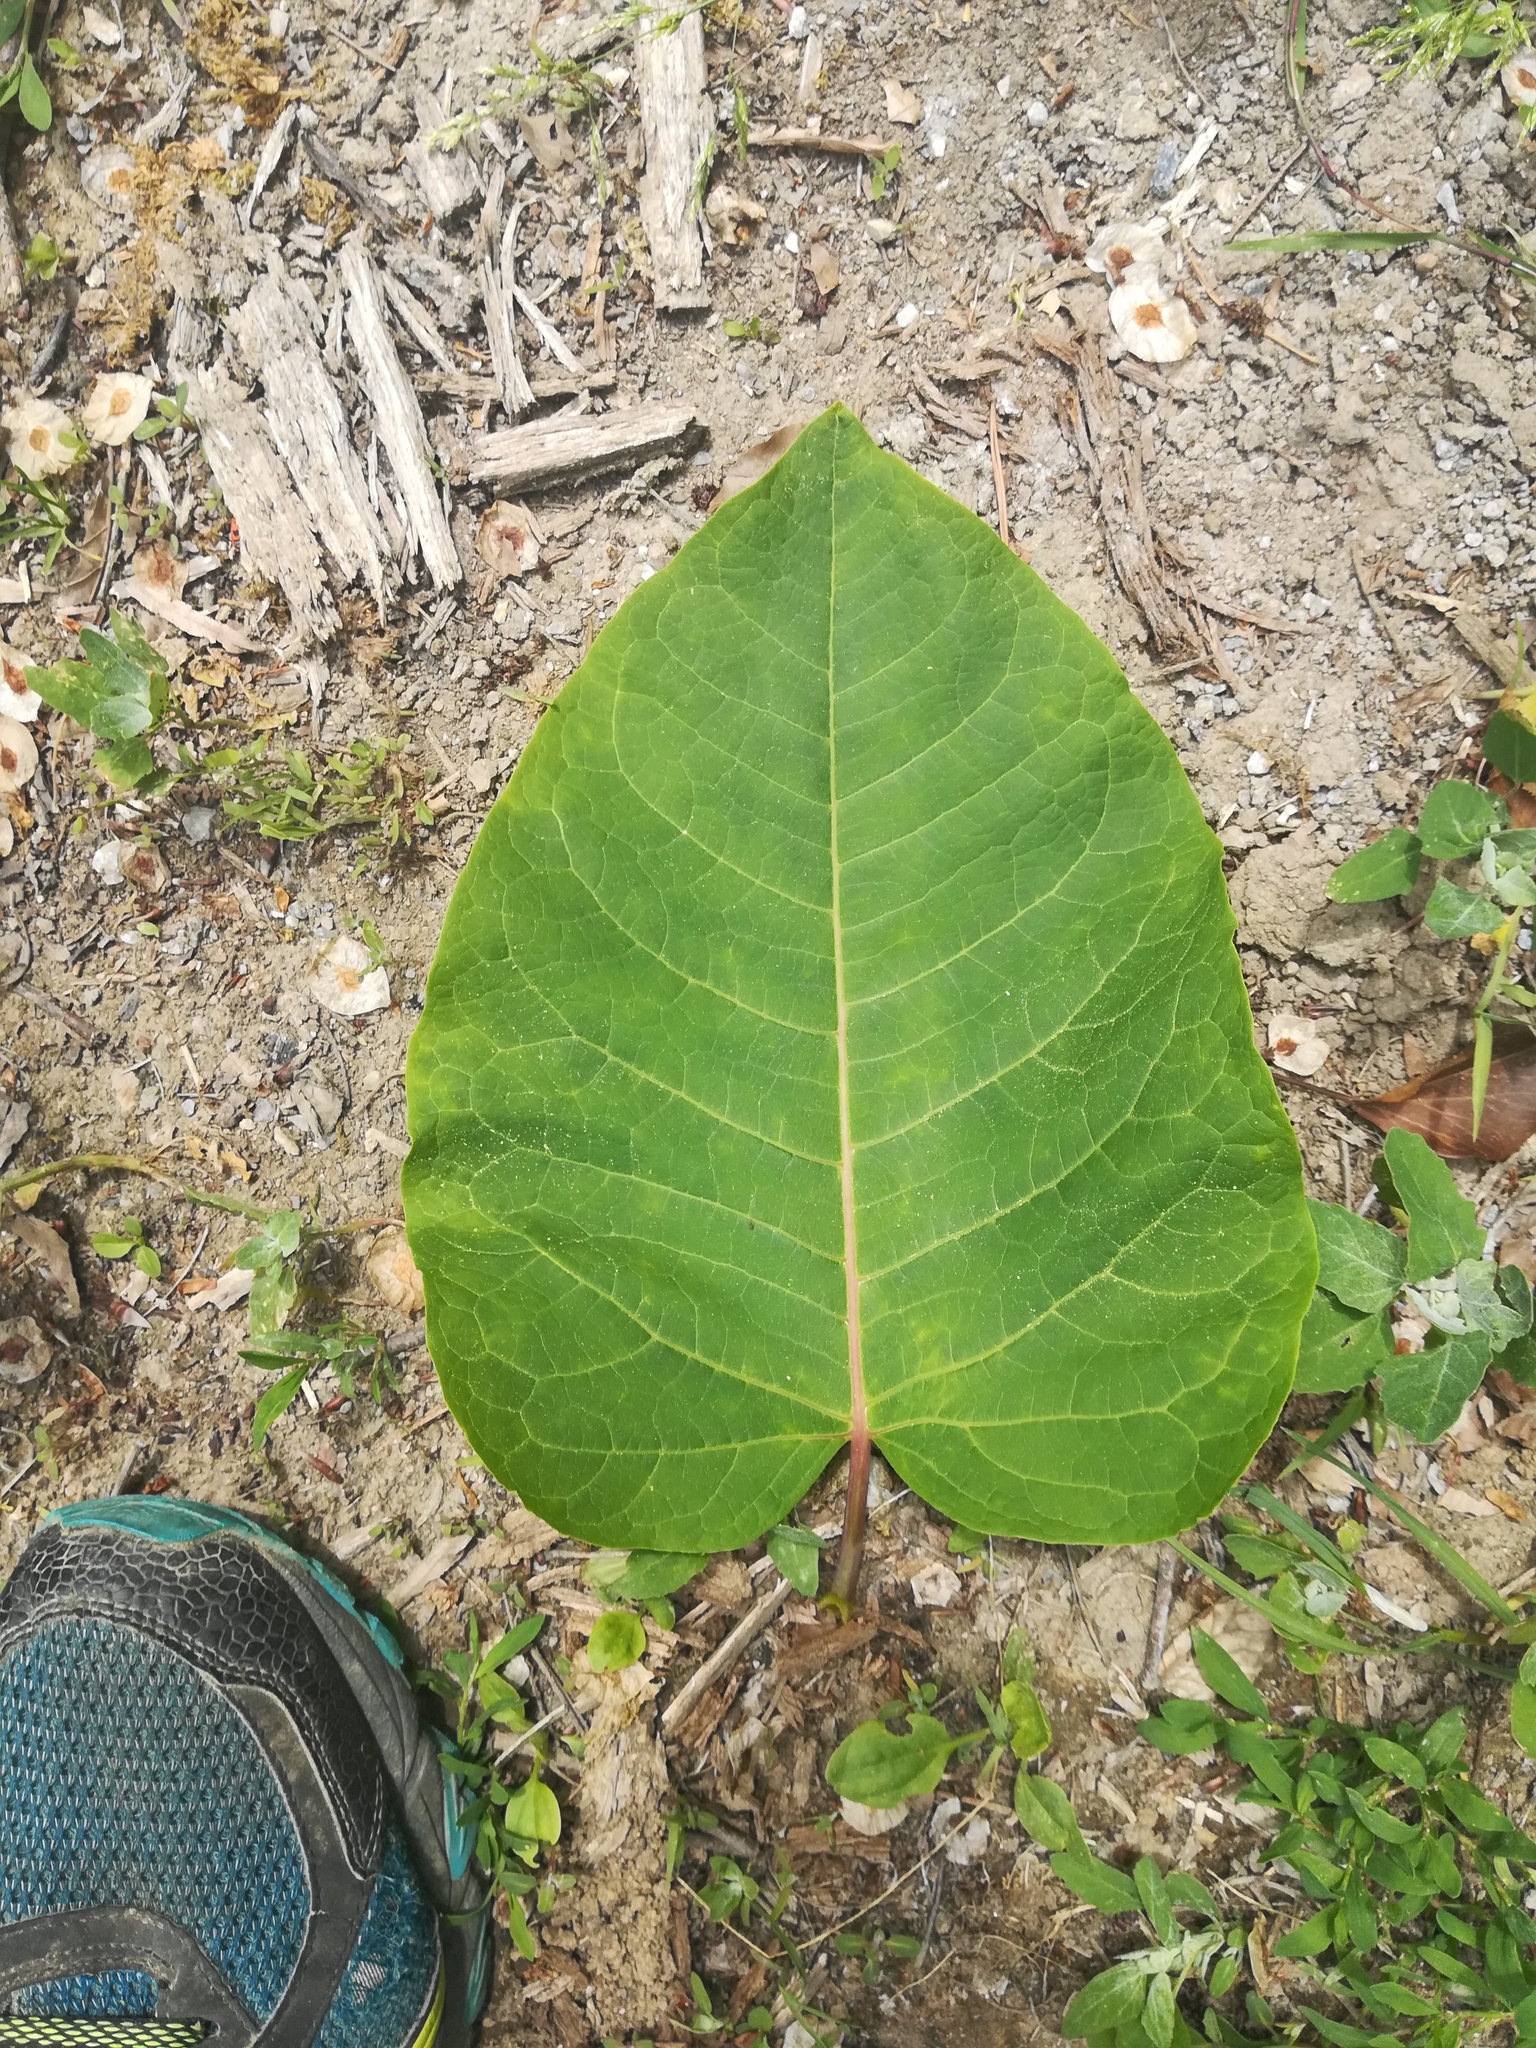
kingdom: Plantae
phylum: Tracheophyta
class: Magnoliopsida
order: Caryophyllales
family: Polygonaceae
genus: Reynoutria
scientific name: Reynoutria sachalinensis
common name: Giant knotweed
